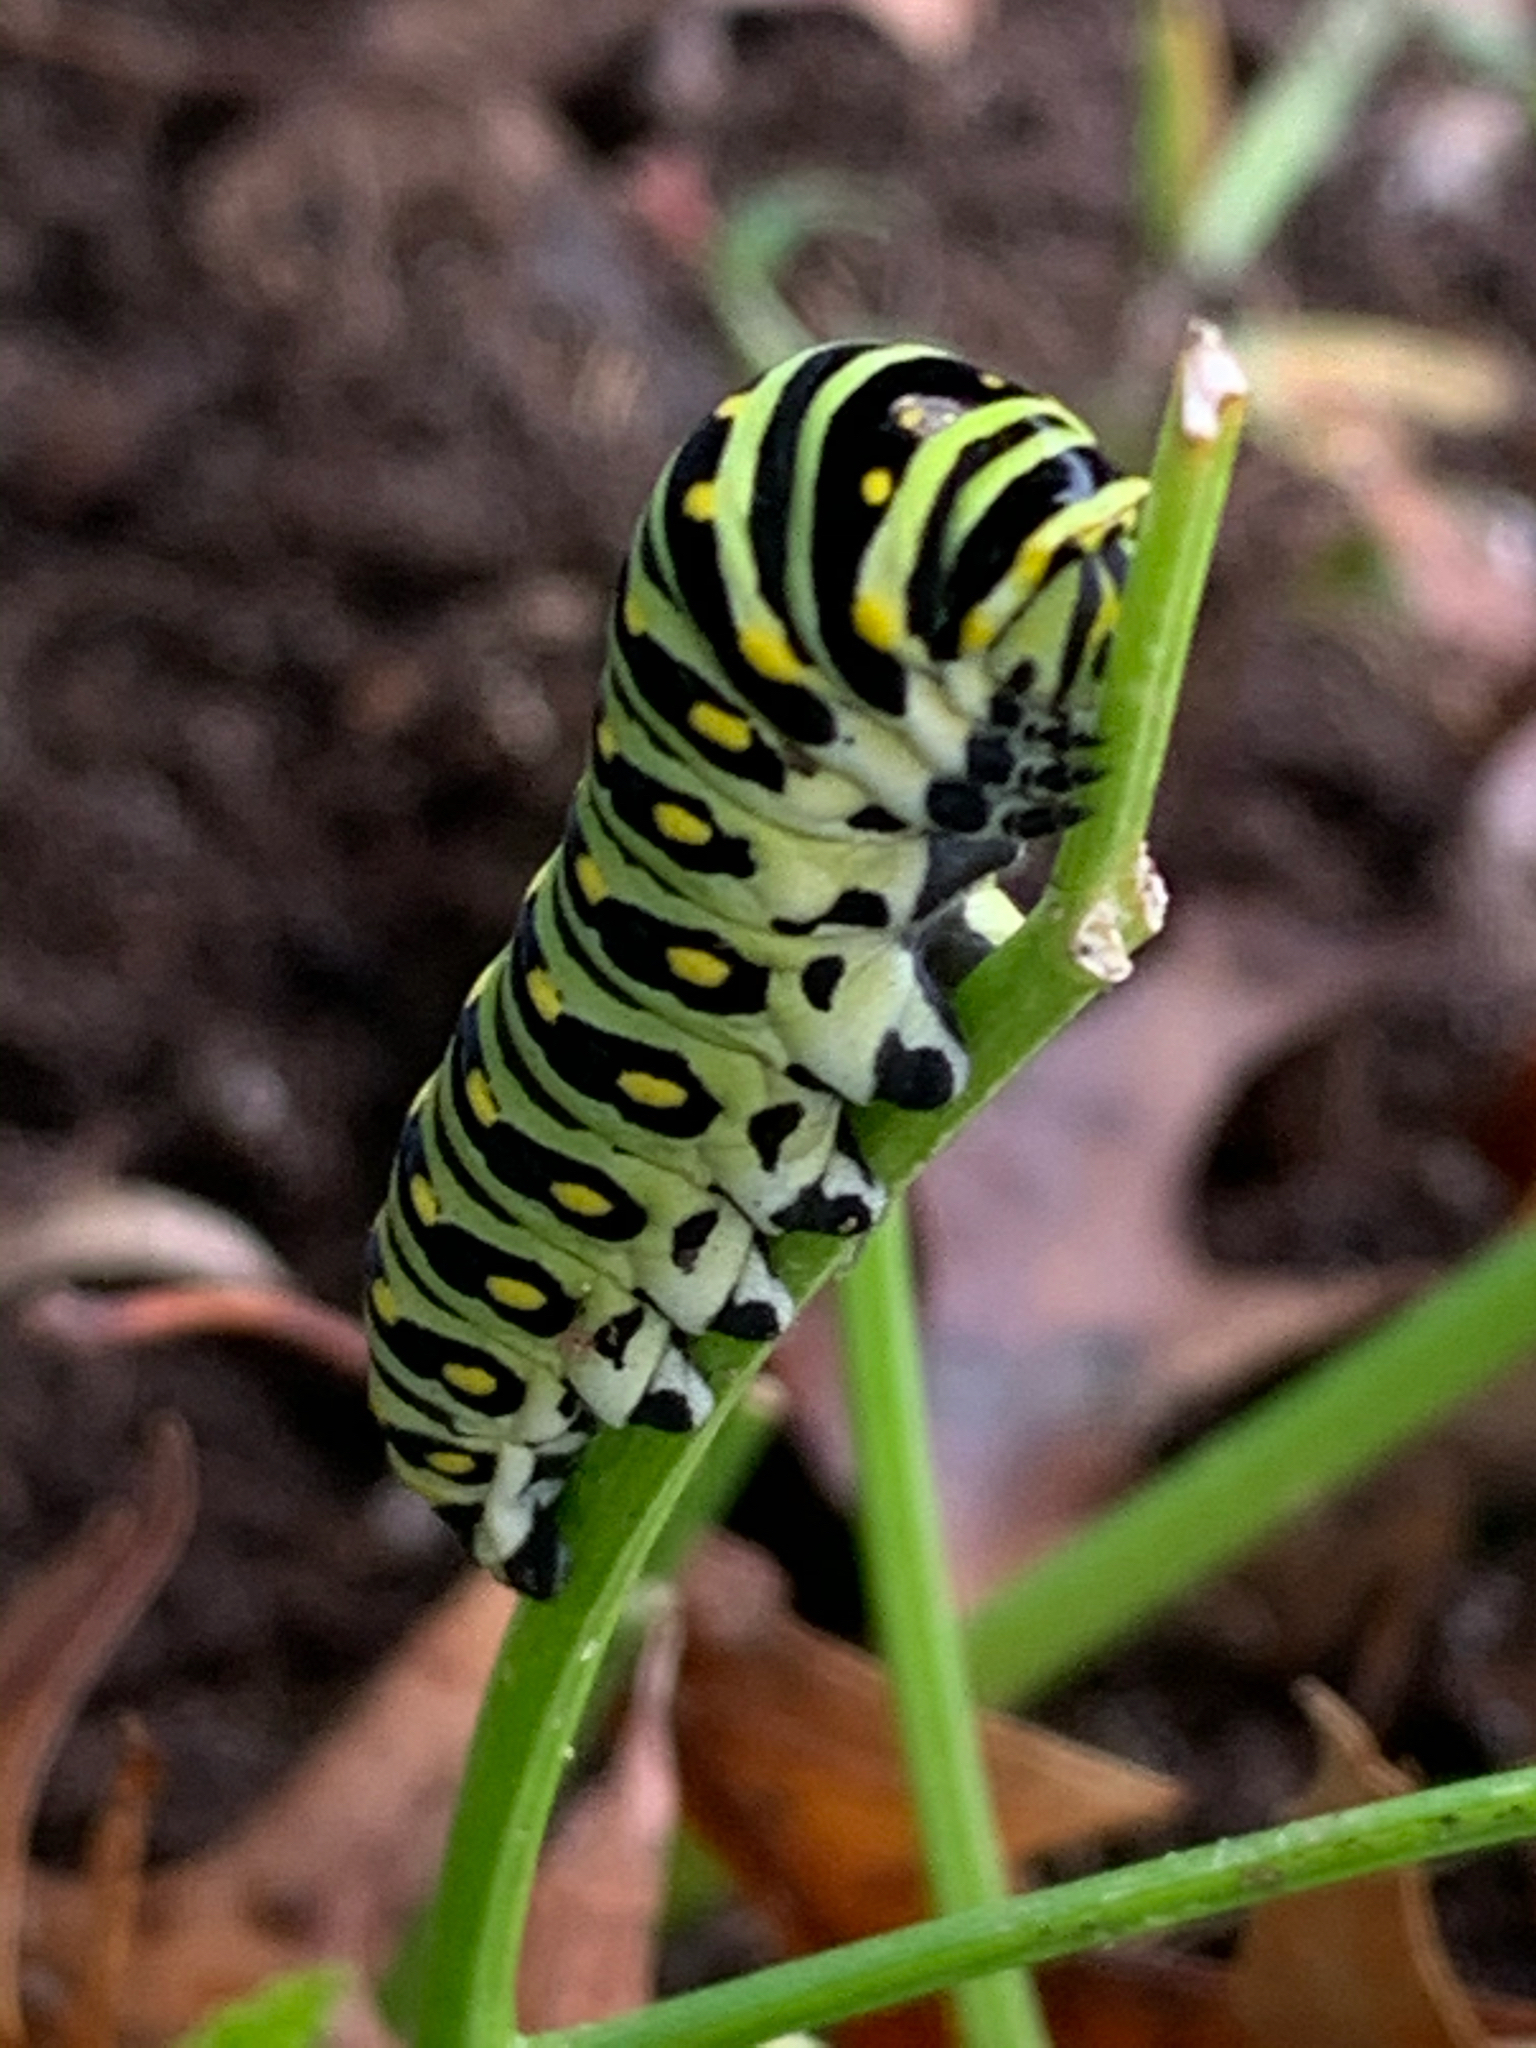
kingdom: Animalia
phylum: Arthropoda
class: Insecta
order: Lepidoptera
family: Papilionidae
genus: Papilio
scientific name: Papilio polyxenes
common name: Black swallowtail
